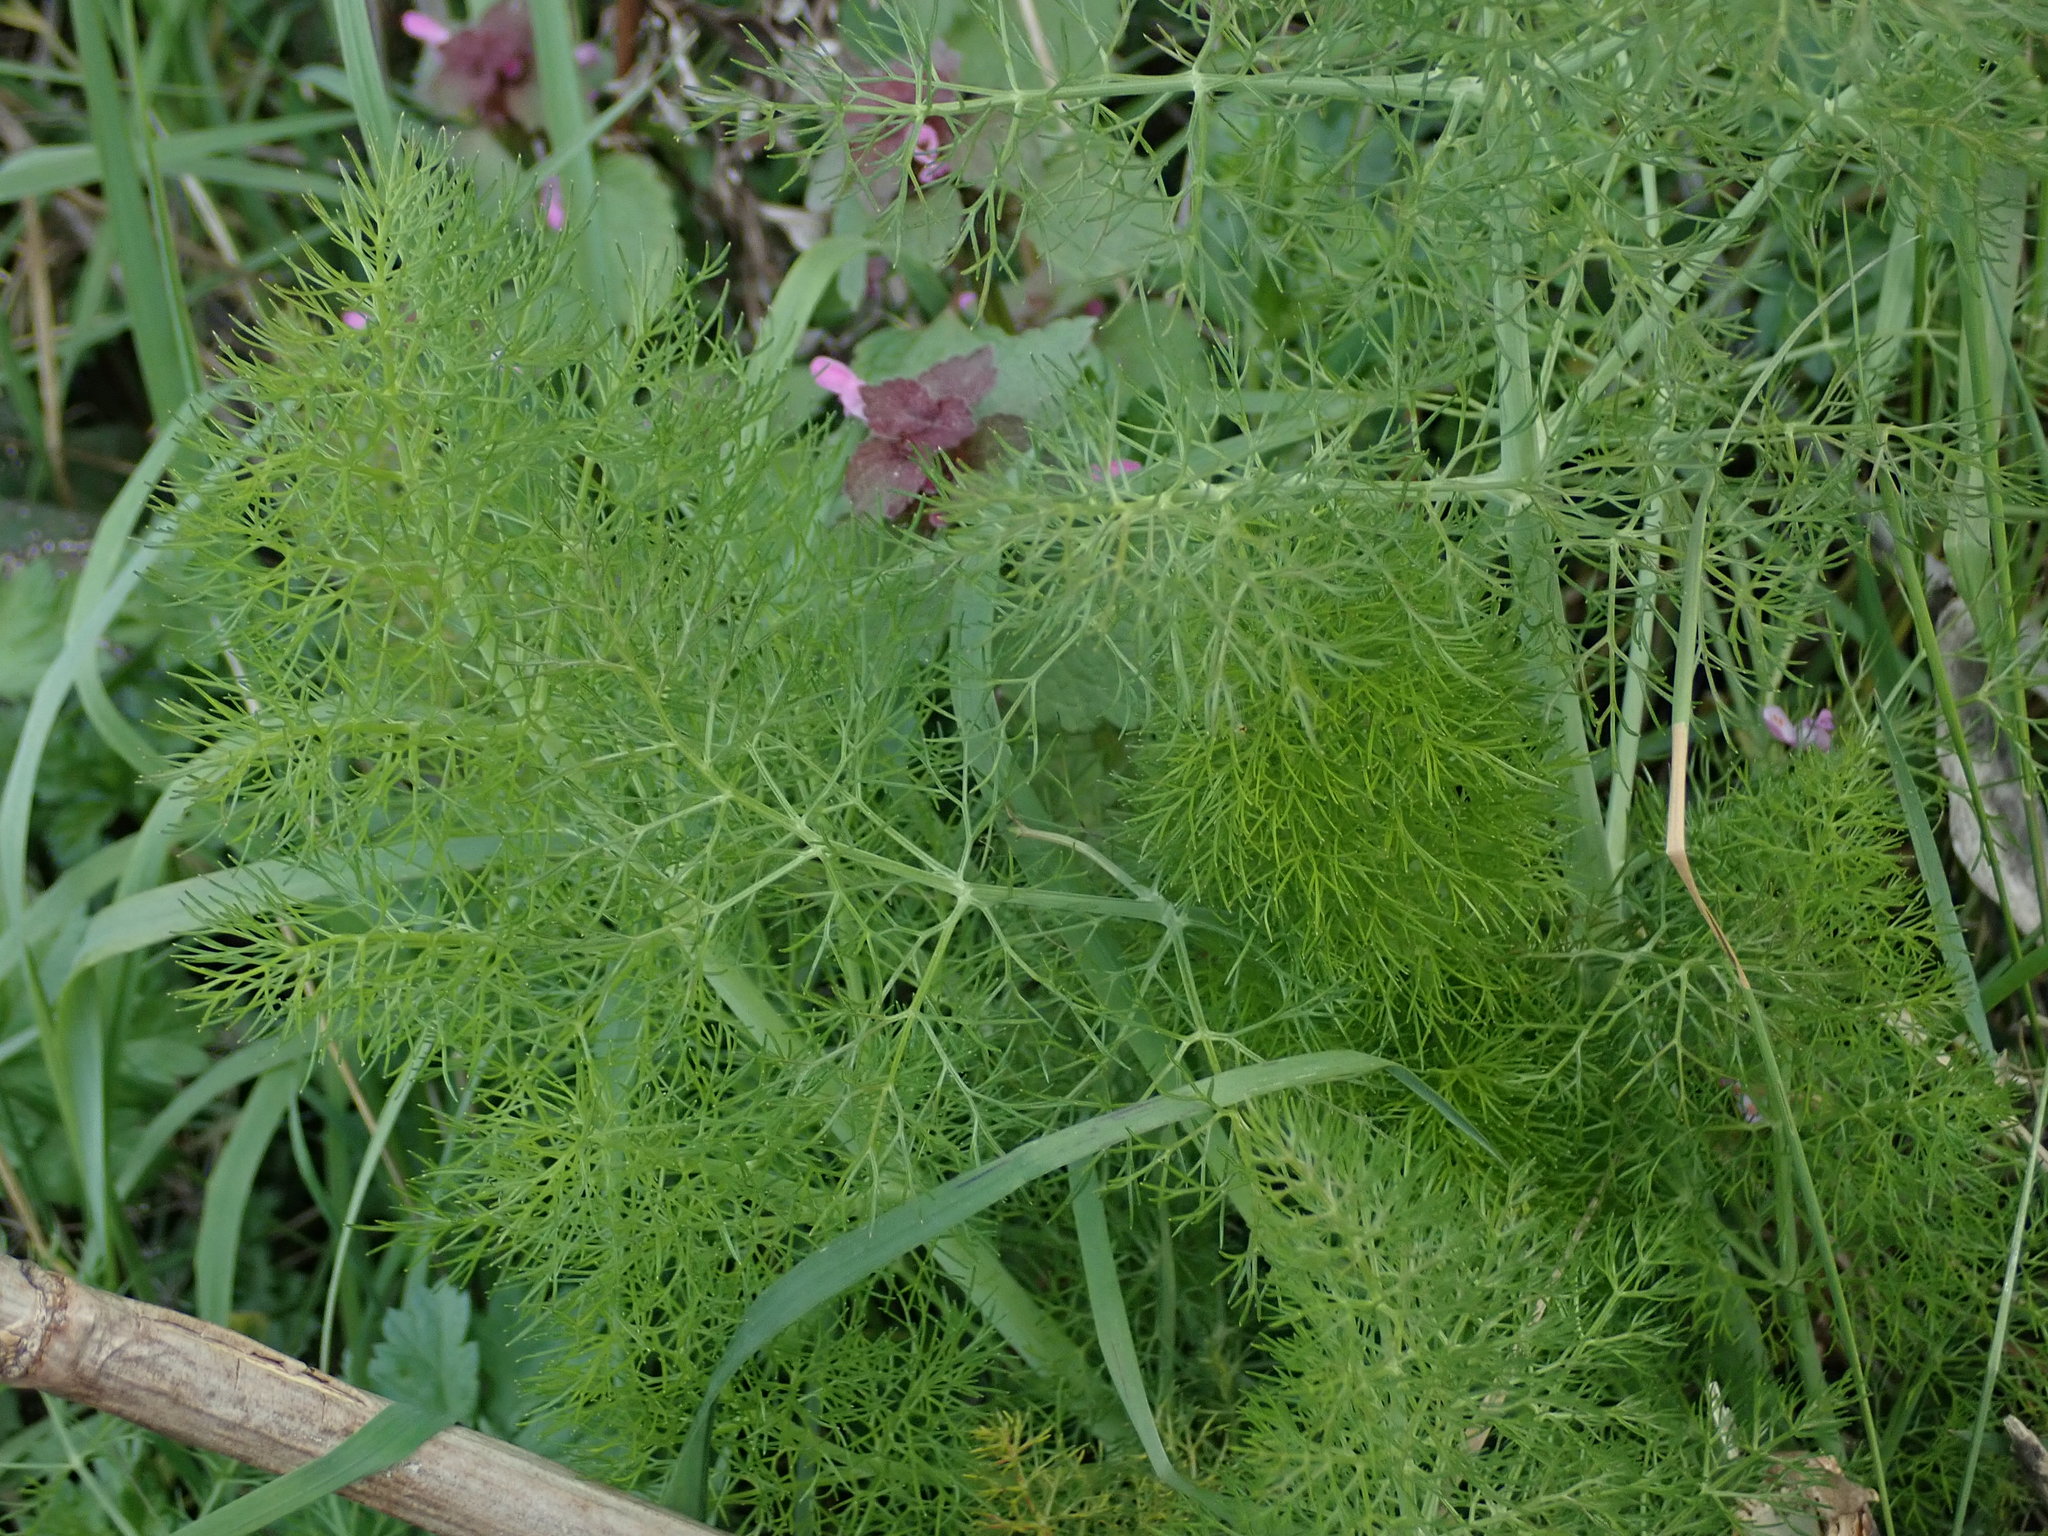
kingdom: Plantae
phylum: Tracheophyta
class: Magnoliopsida
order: Apiales
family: Apiaceae
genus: Foeniculum
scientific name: Foeniculum vulgare
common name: Fennel
